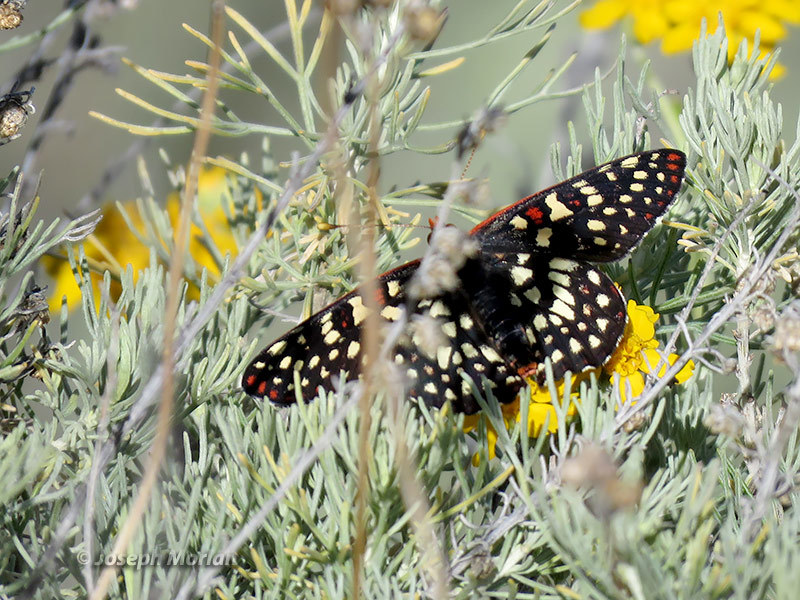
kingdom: Animalia
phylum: Arthropoda
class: Insecta
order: Lepidoptera
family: Nymphalidae
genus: Occidryas
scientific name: Occidryas chalcedona
